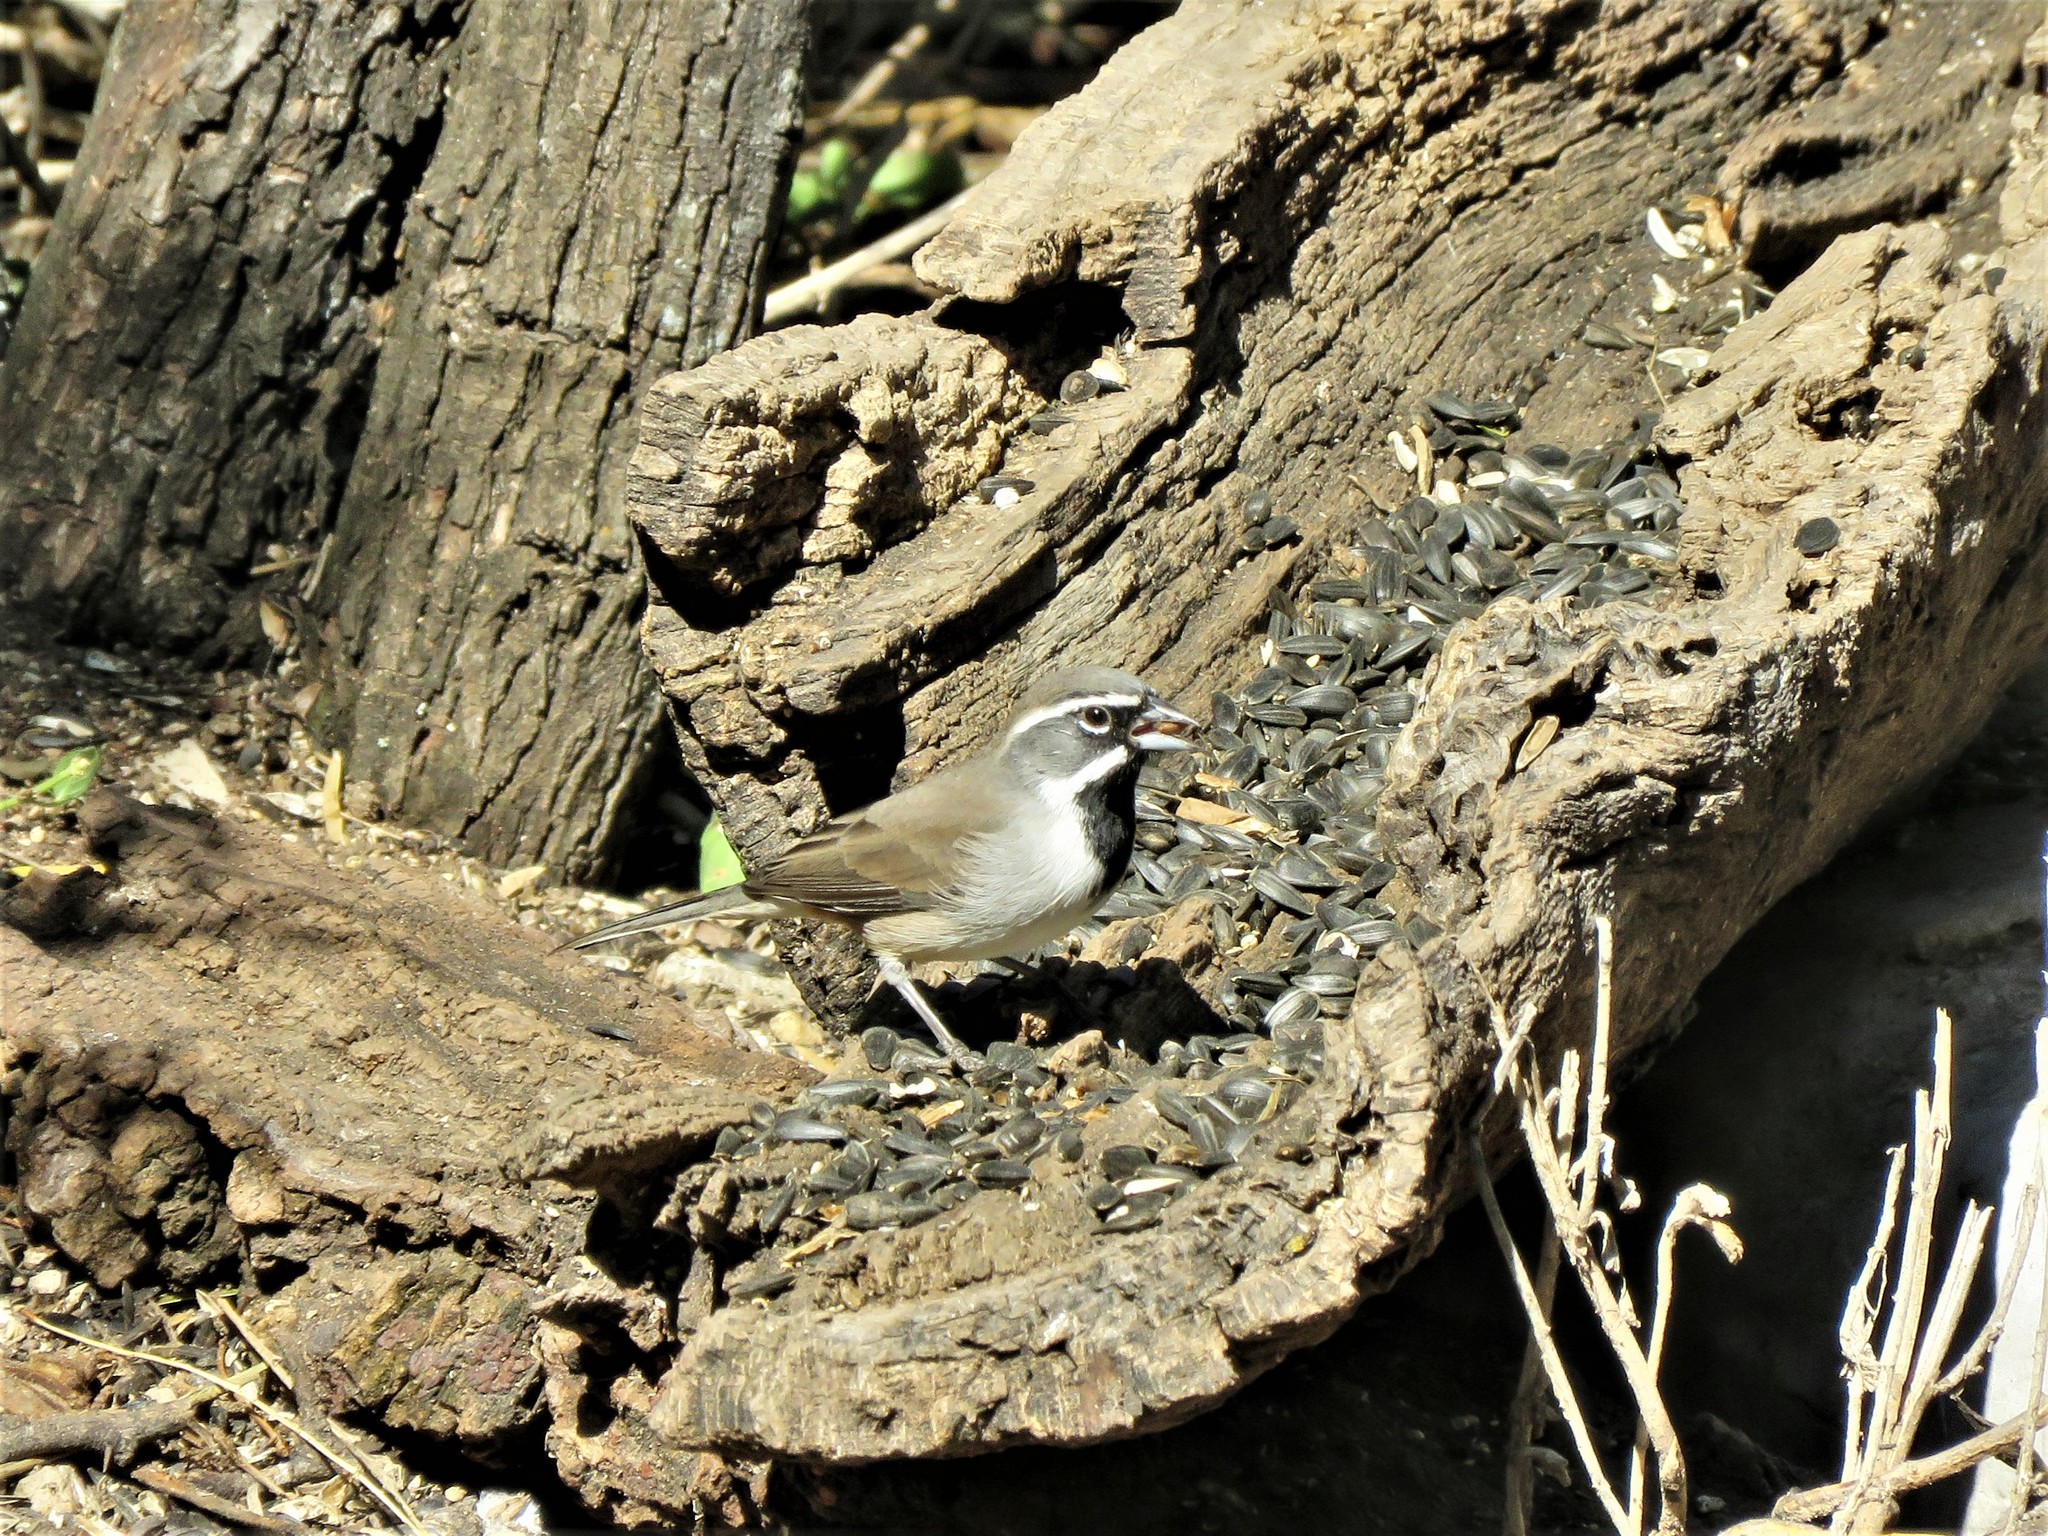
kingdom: Animalia
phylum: Chordata
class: Aves
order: Passeriformes
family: Passerellidae
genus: Amphispiza
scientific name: Amphispiza bilineata
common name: Black-throated sparrow
